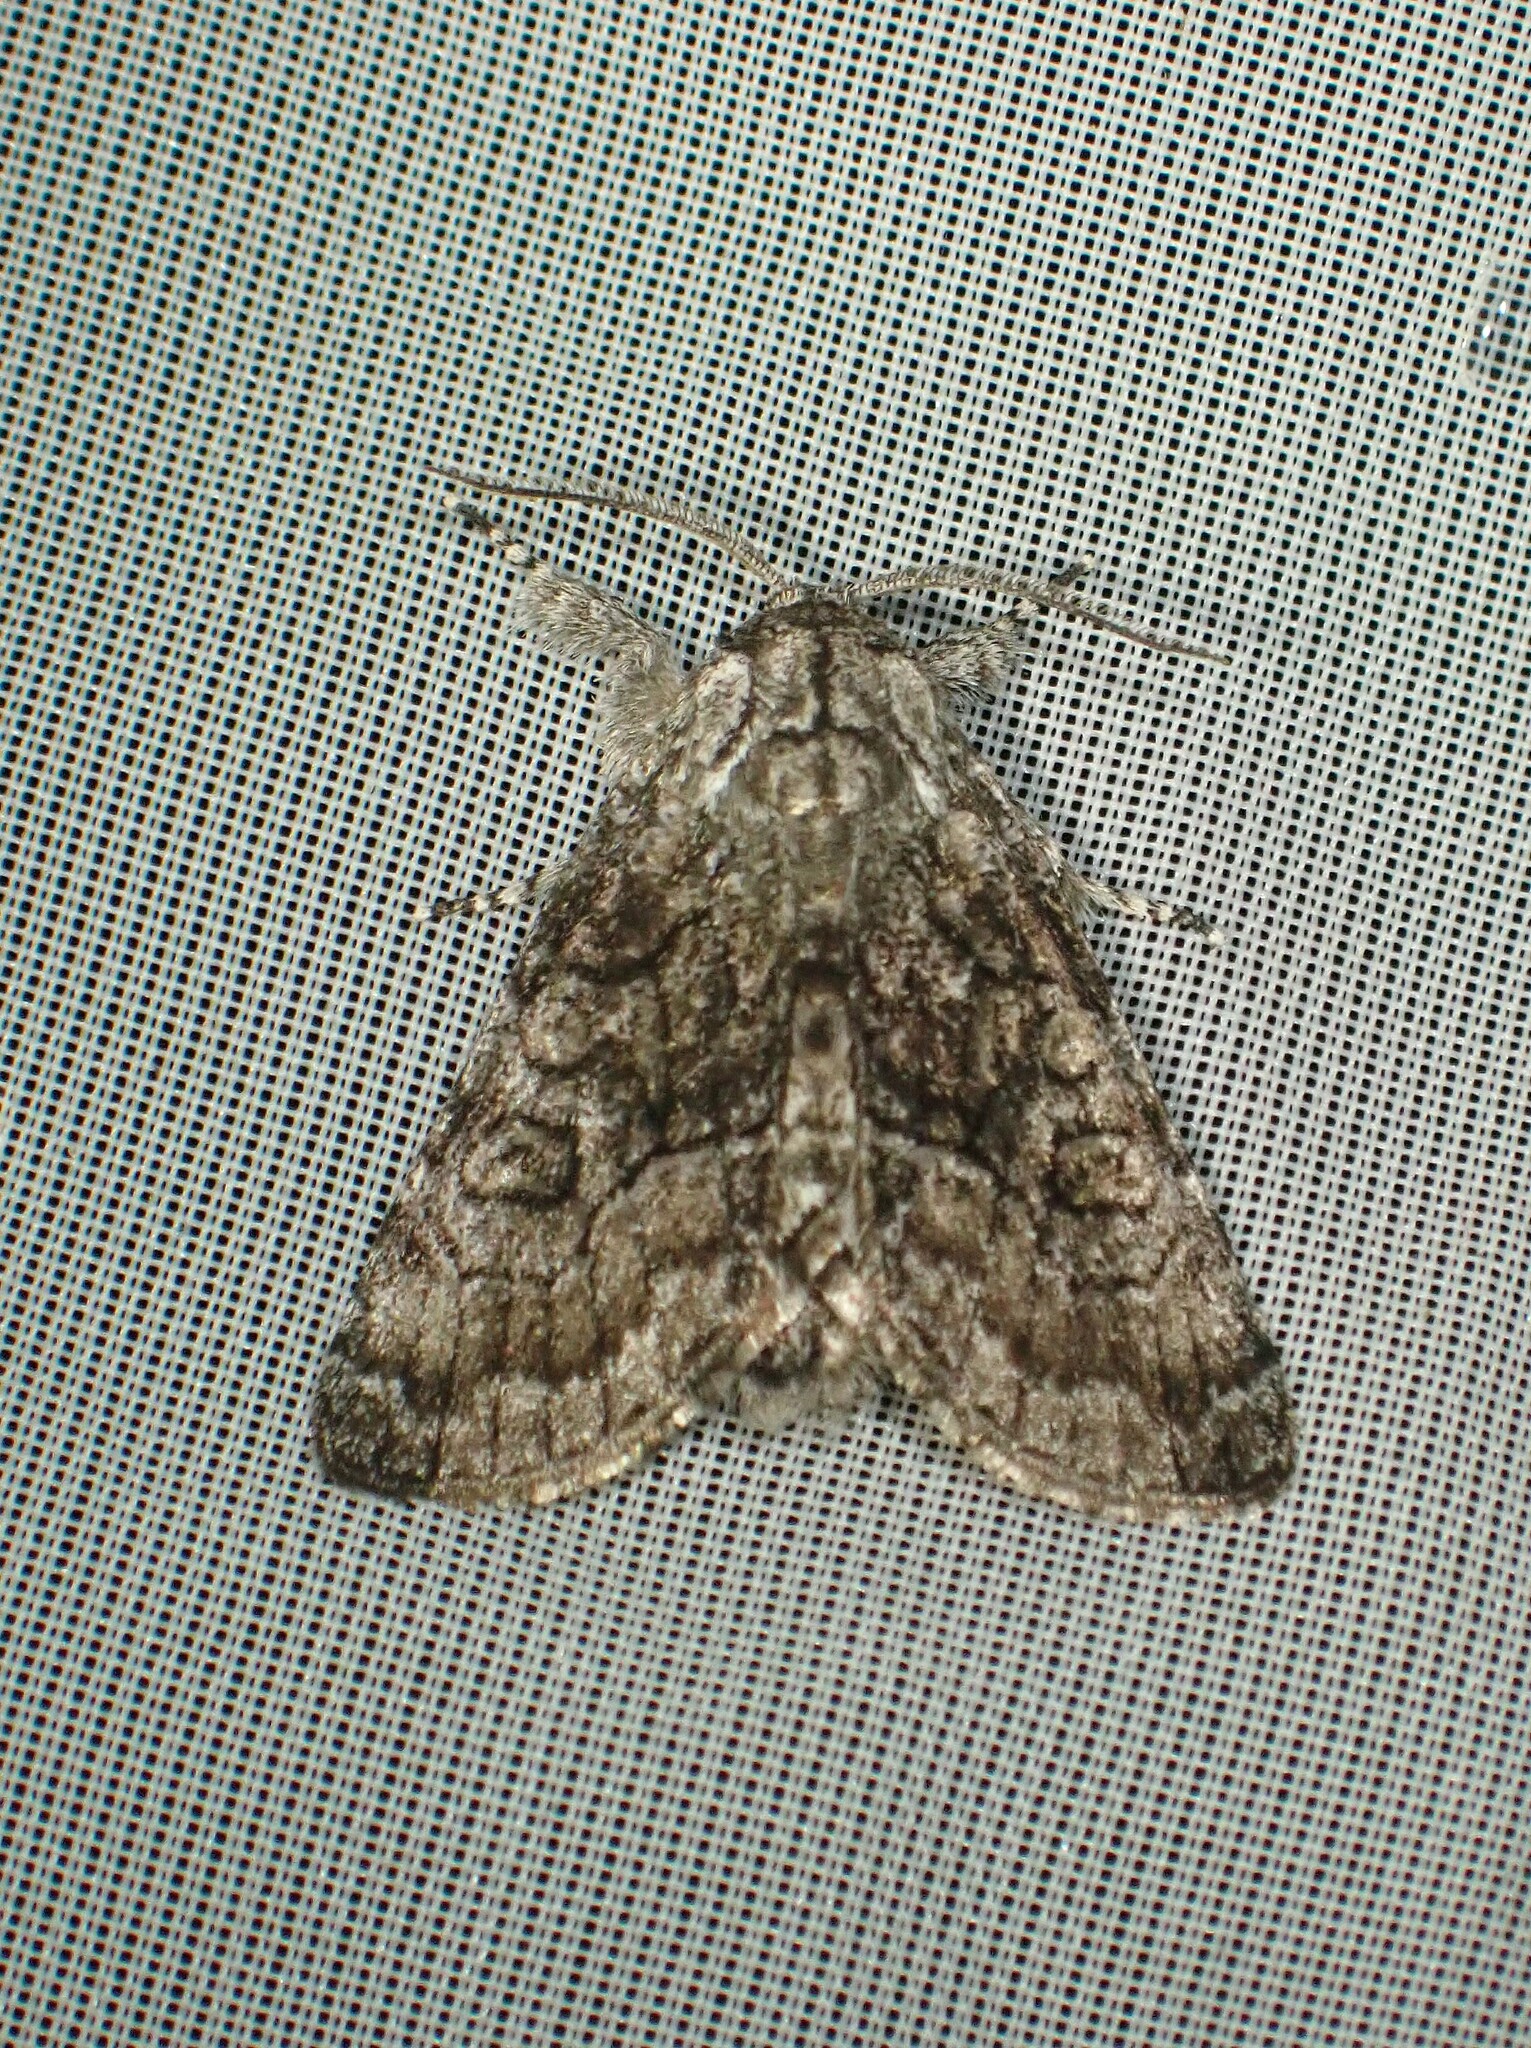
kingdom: Animalia
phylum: Arthropoda
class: Insecta
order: Lepidoptera
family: Noctuidae
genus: Raphia
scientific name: Raphia frater
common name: Brother
